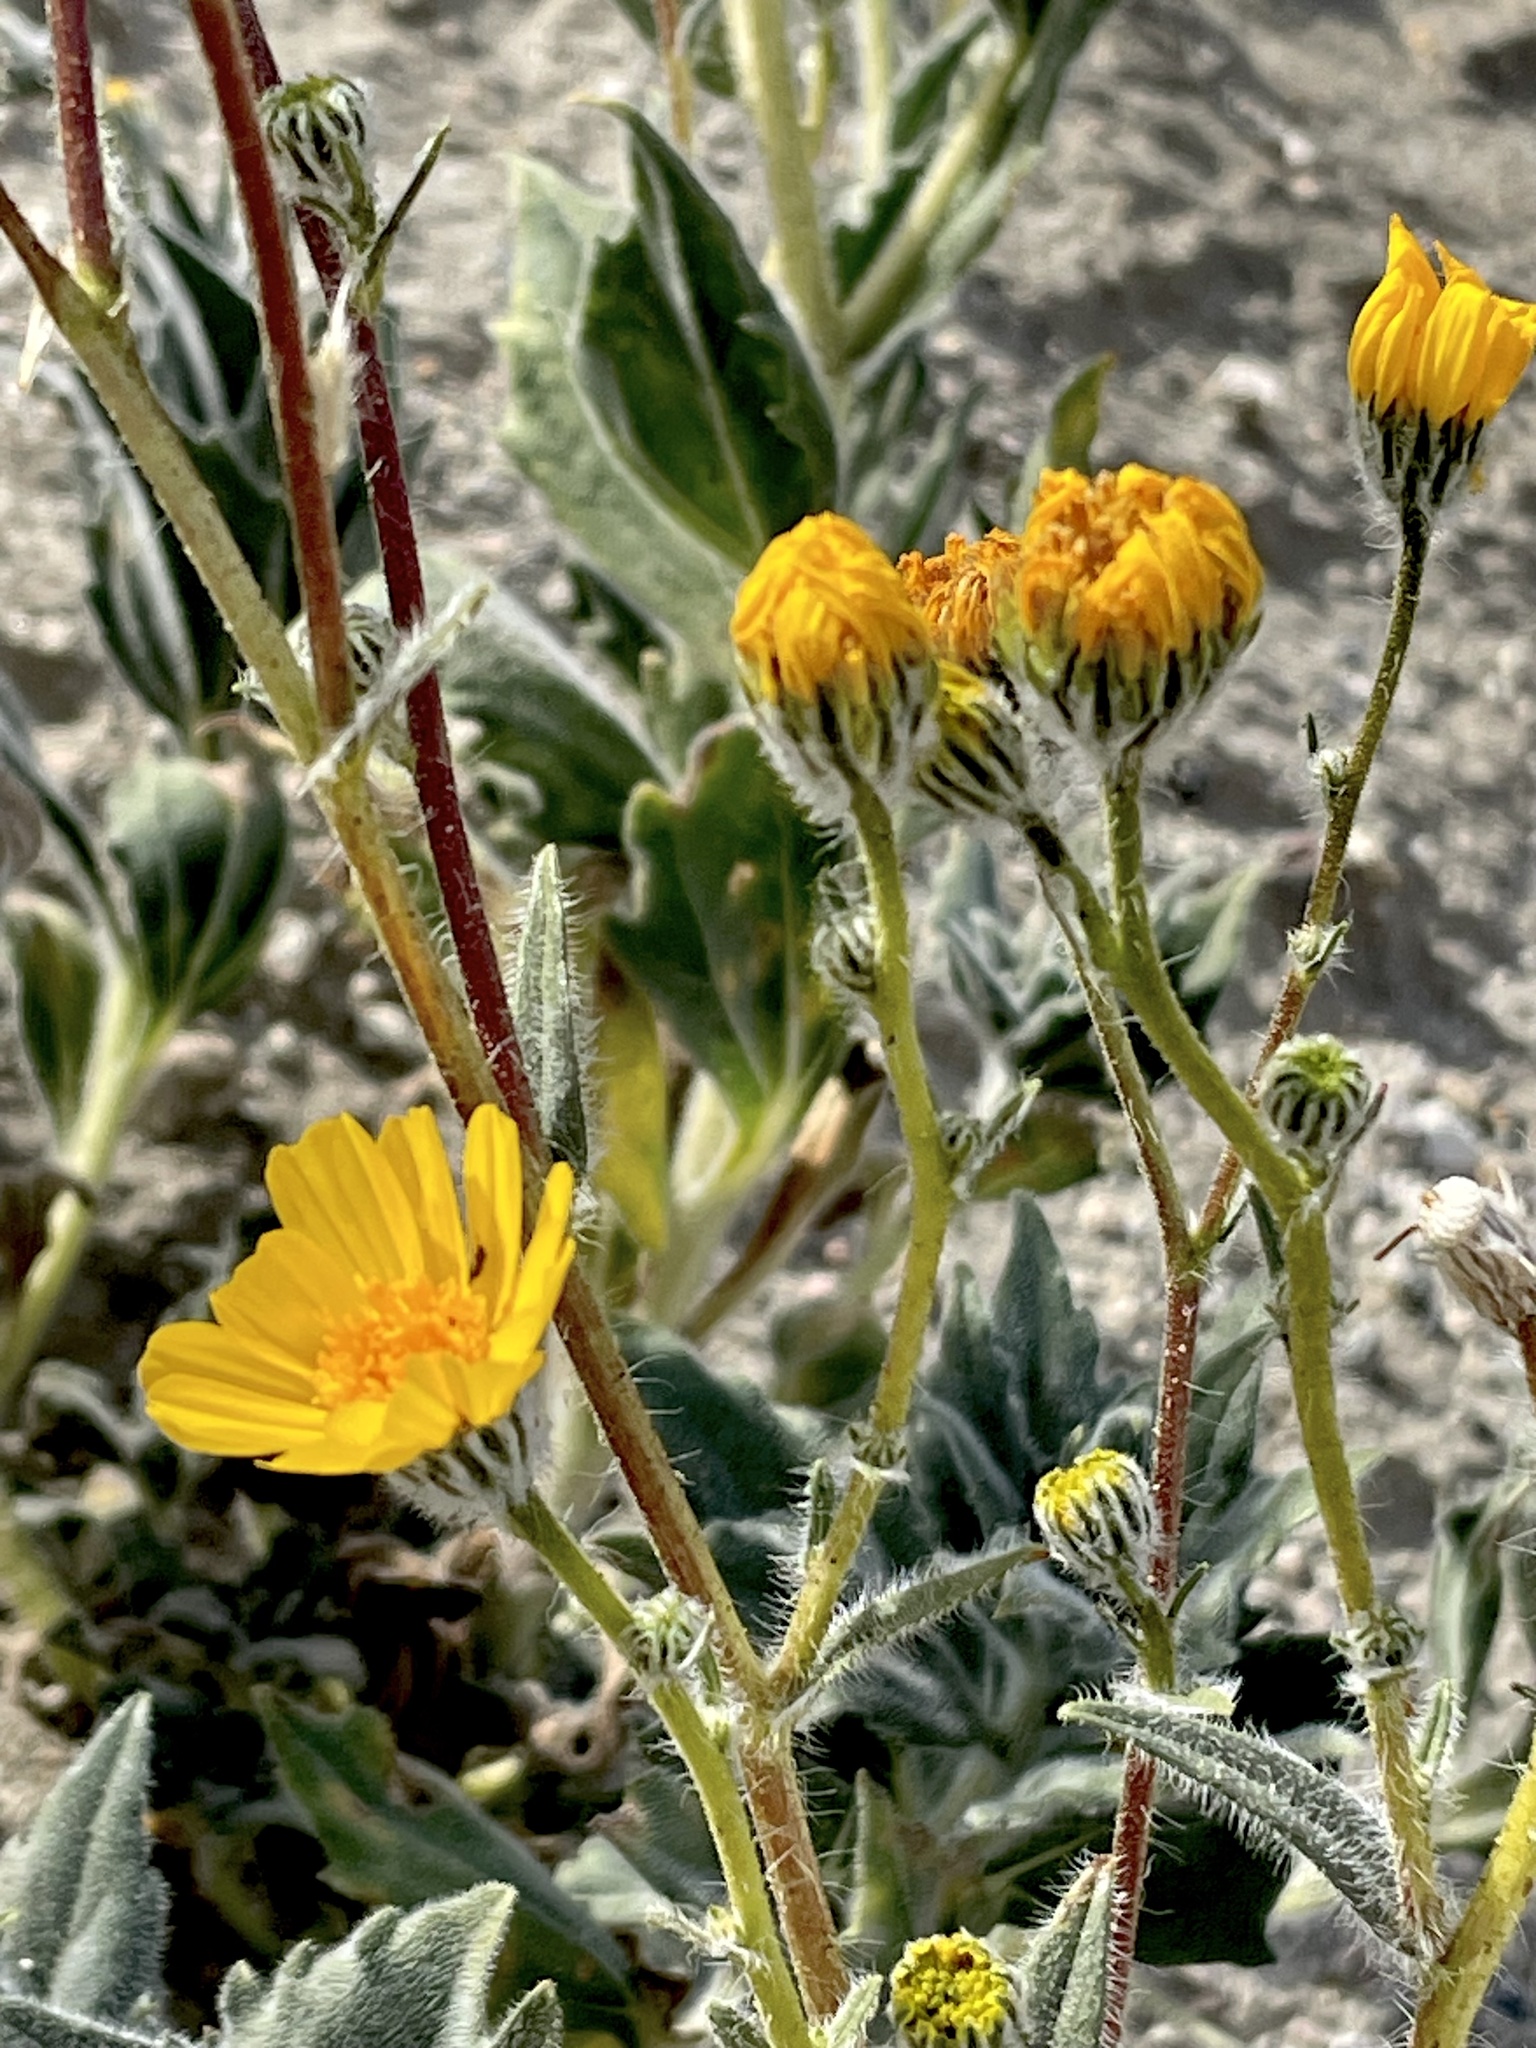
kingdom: Plantae
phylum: Tracheophyta
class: Magnoliopsida
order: Asterales
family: Asteraceae
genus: Geraea
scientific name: Geraea canescens
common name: Desert-gold
